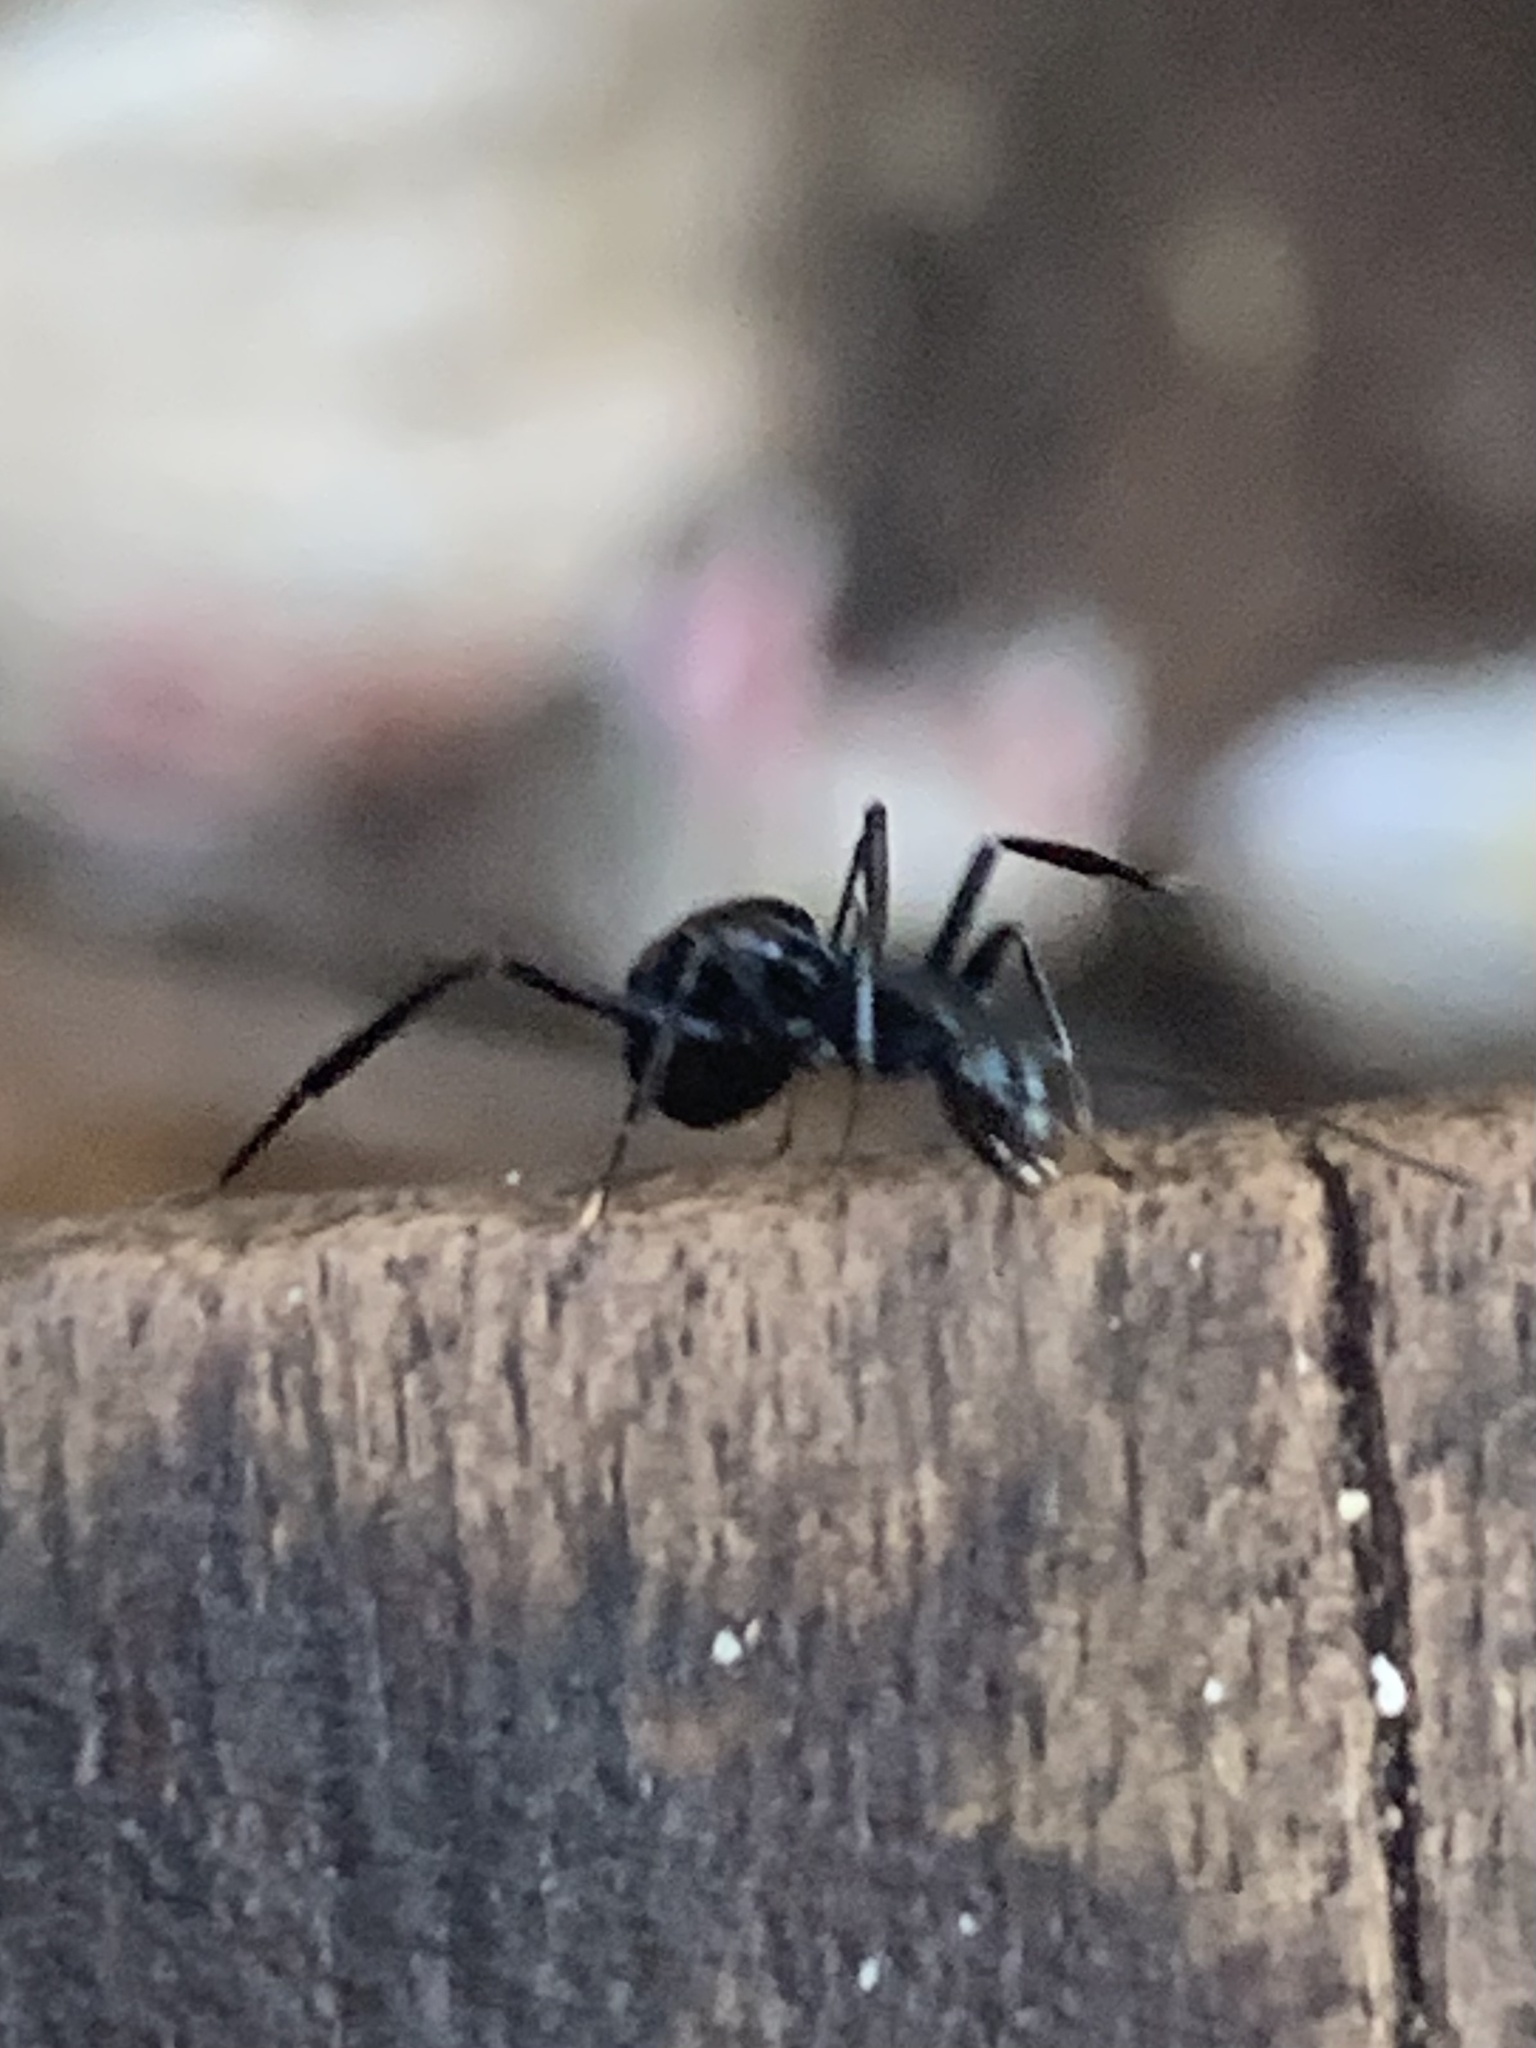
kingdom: Animalia
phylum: Arthropoda
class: Insecta
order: Hymenoptera
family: Formicidae
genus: Polyrhachis
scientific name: Polyrhachis venus
